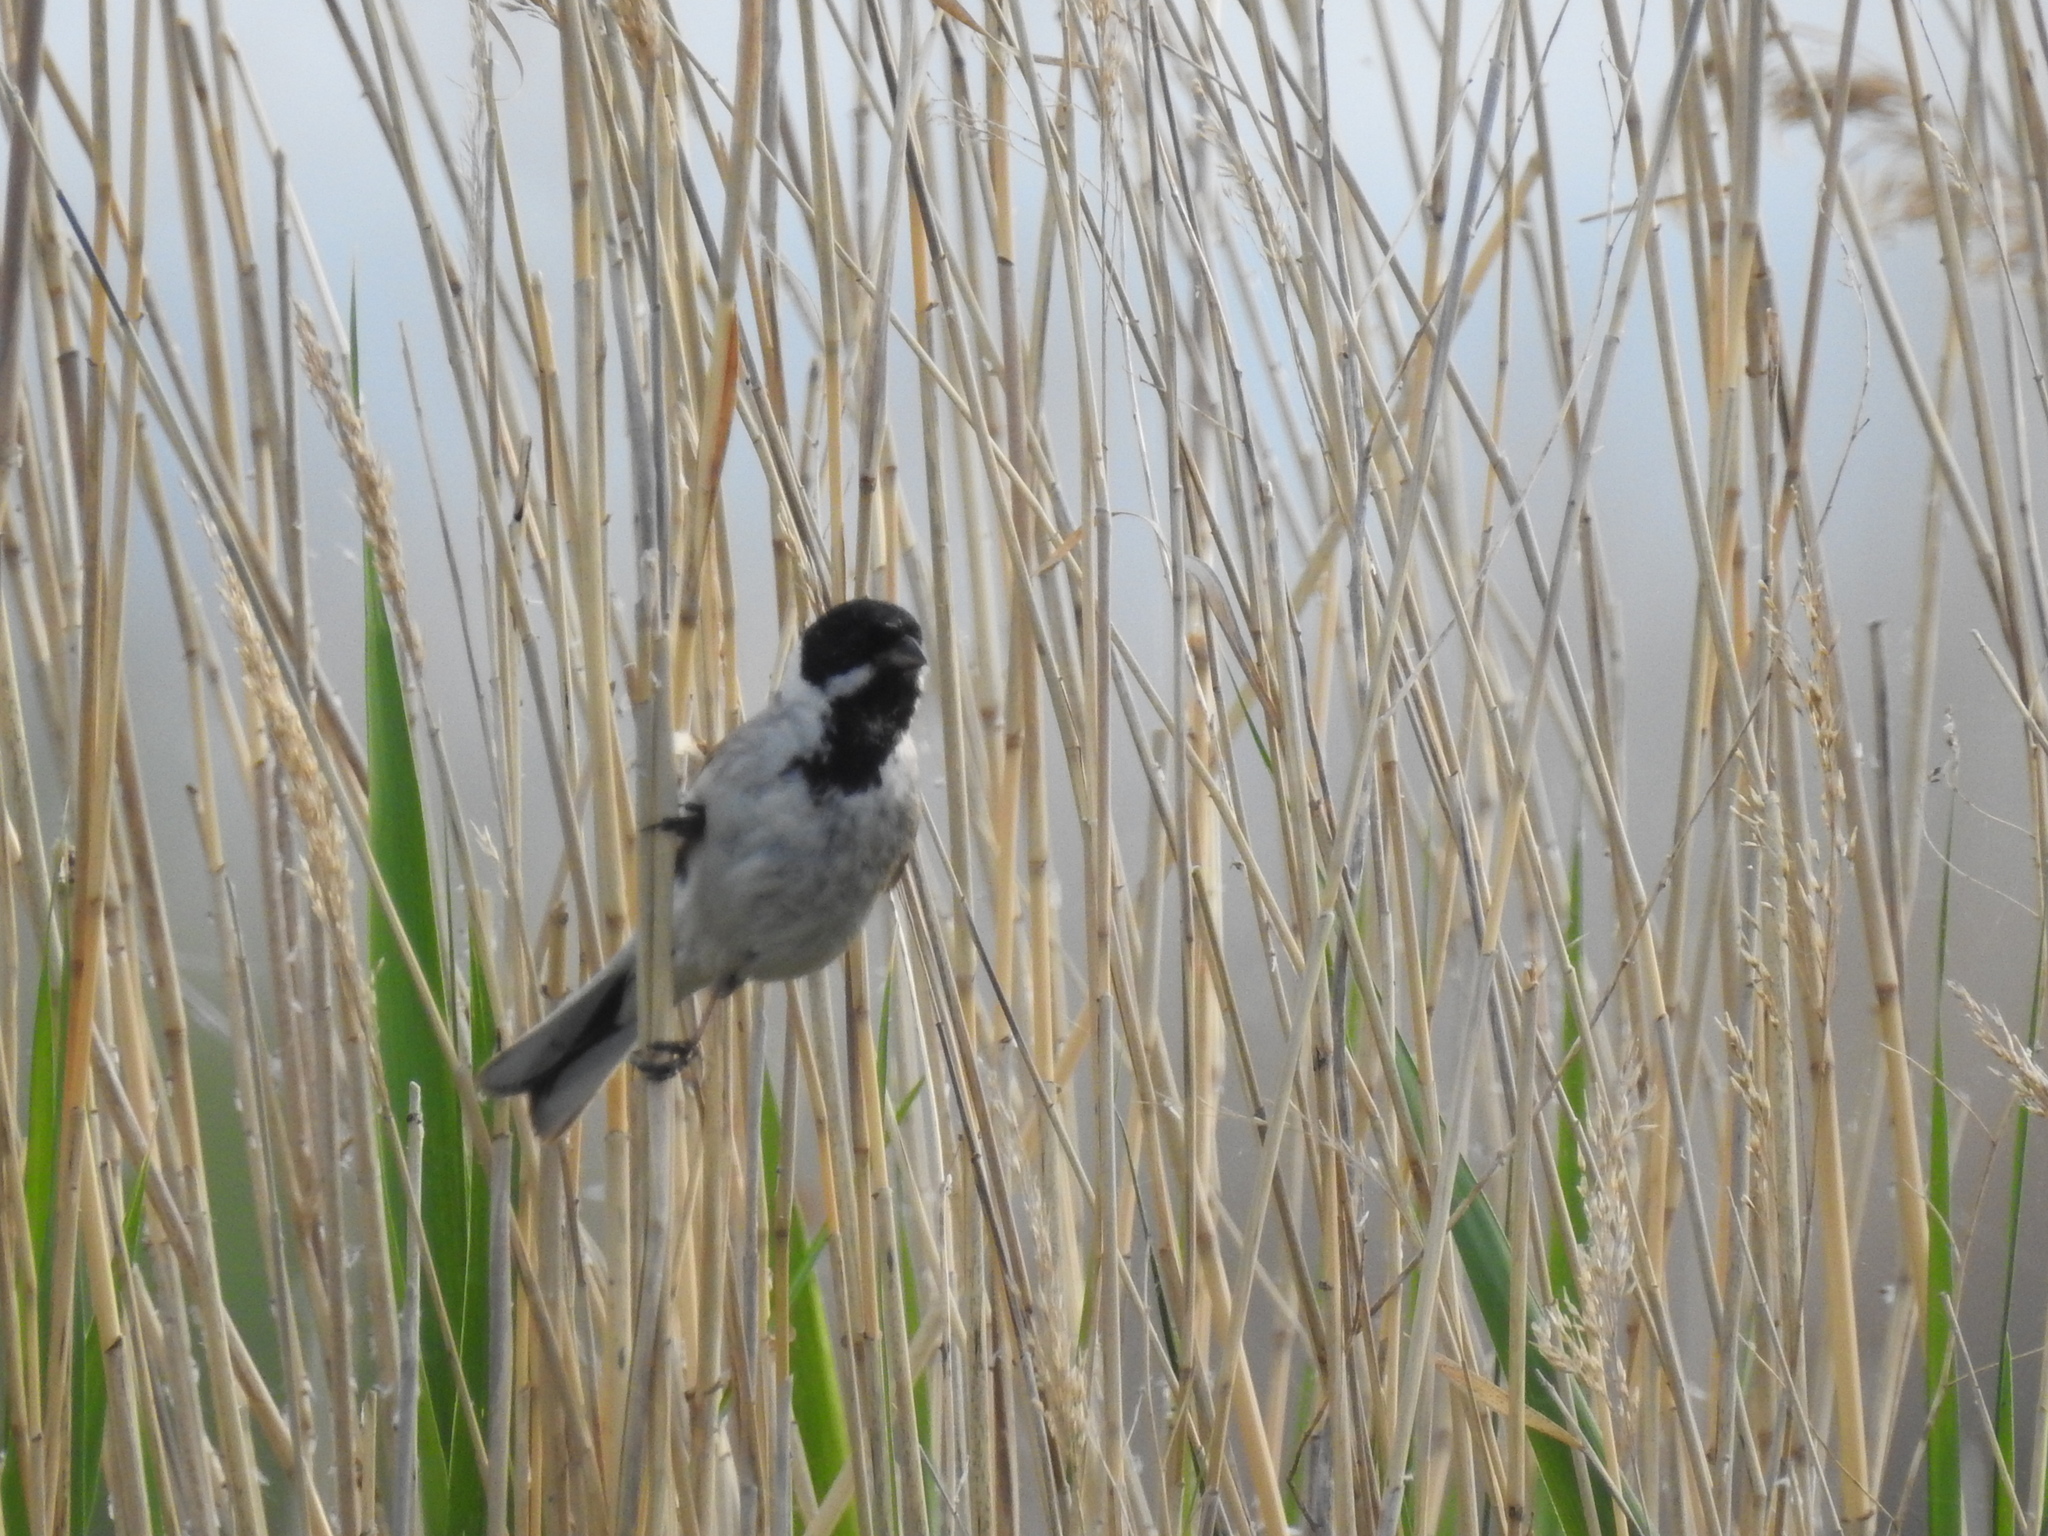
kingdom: Animalia
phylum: Chordata
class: Aves
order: Passeriformes
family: Emberizidae
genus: Emberiza
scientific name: Emberiza schoeniclus
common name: Reed bunting
